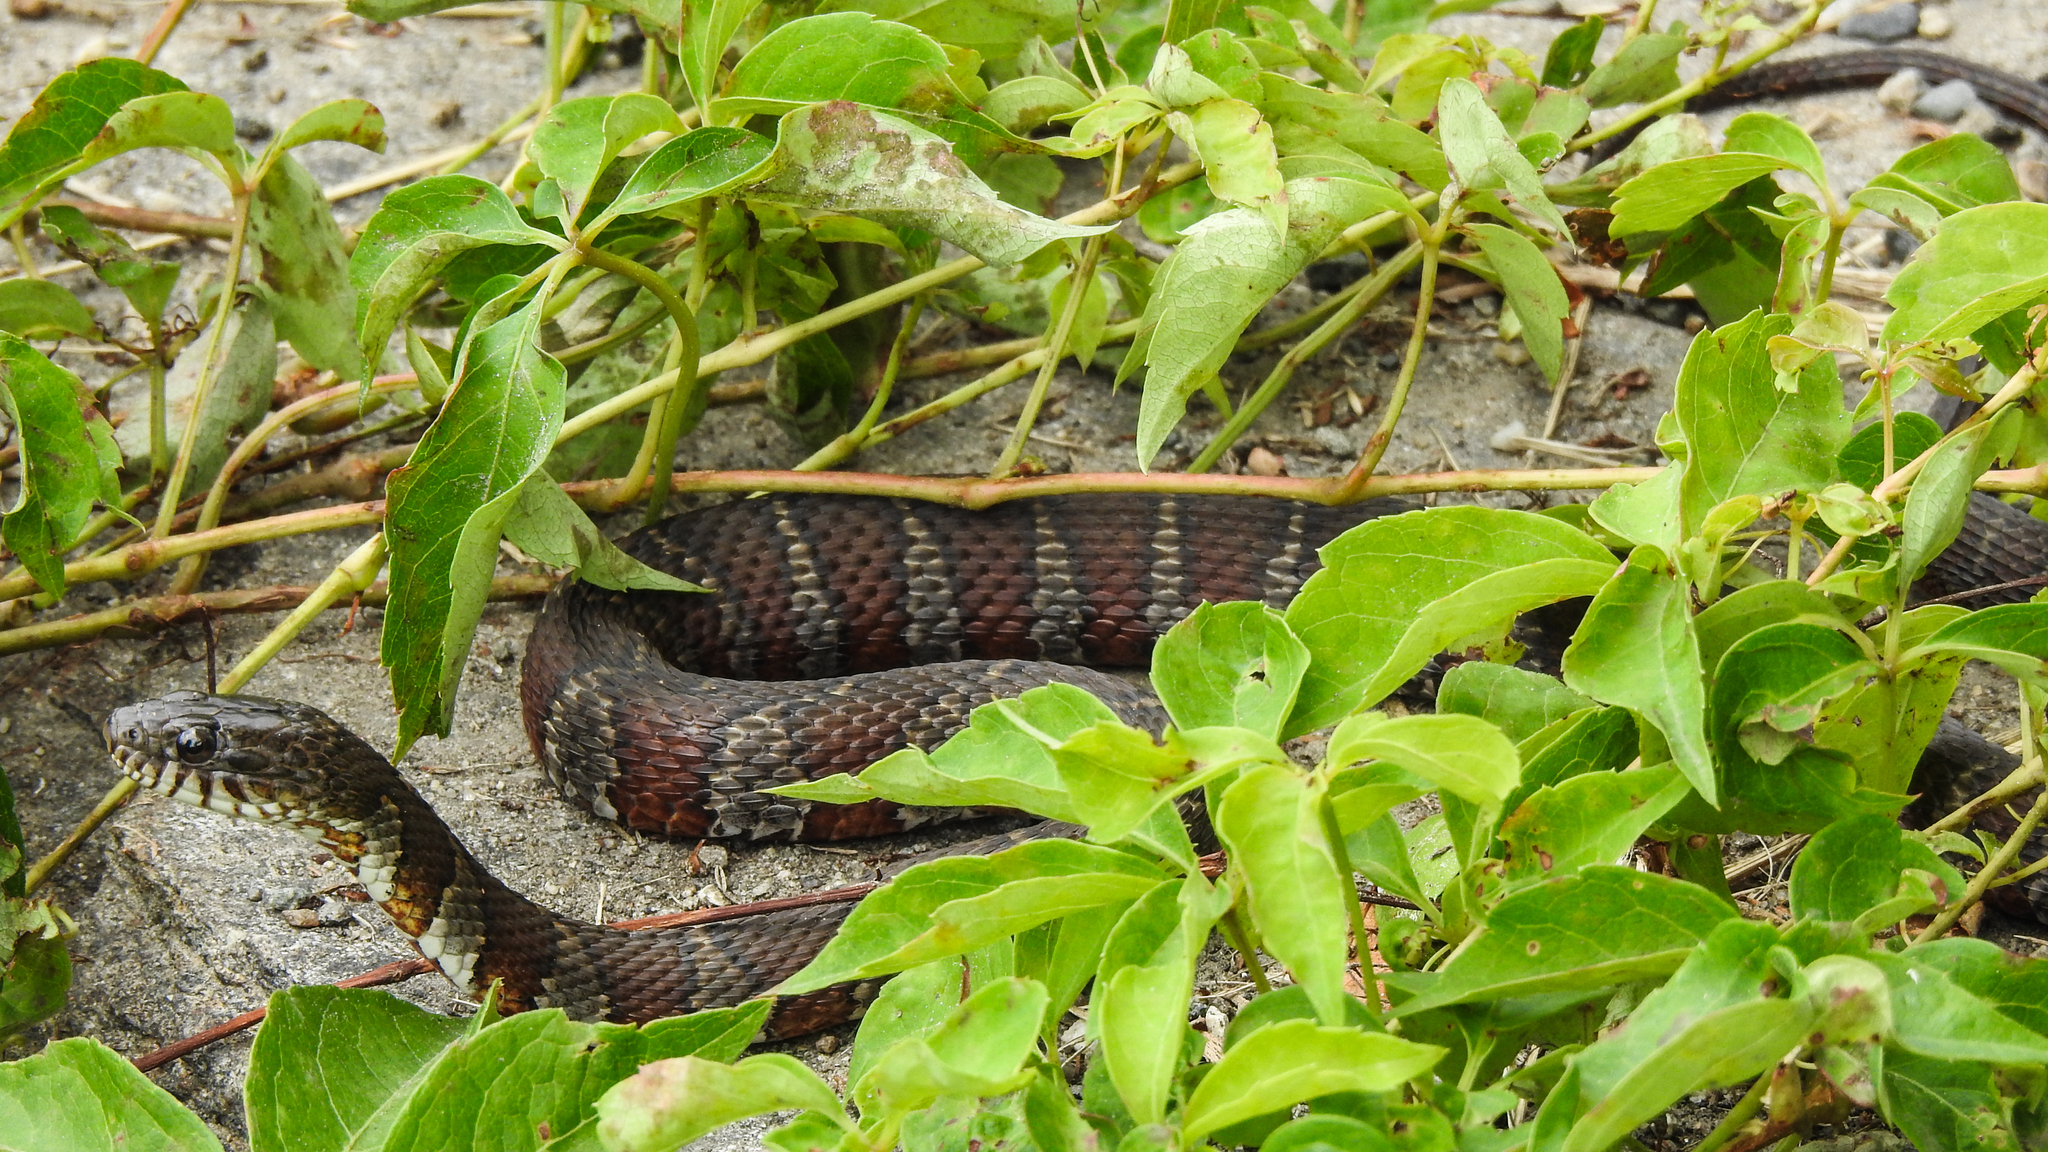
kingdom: Animalia
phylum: Chordata
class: Squamata
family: Colubridae
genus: Nerodia
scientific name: Nerodia sipedon
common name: Northern water snake
